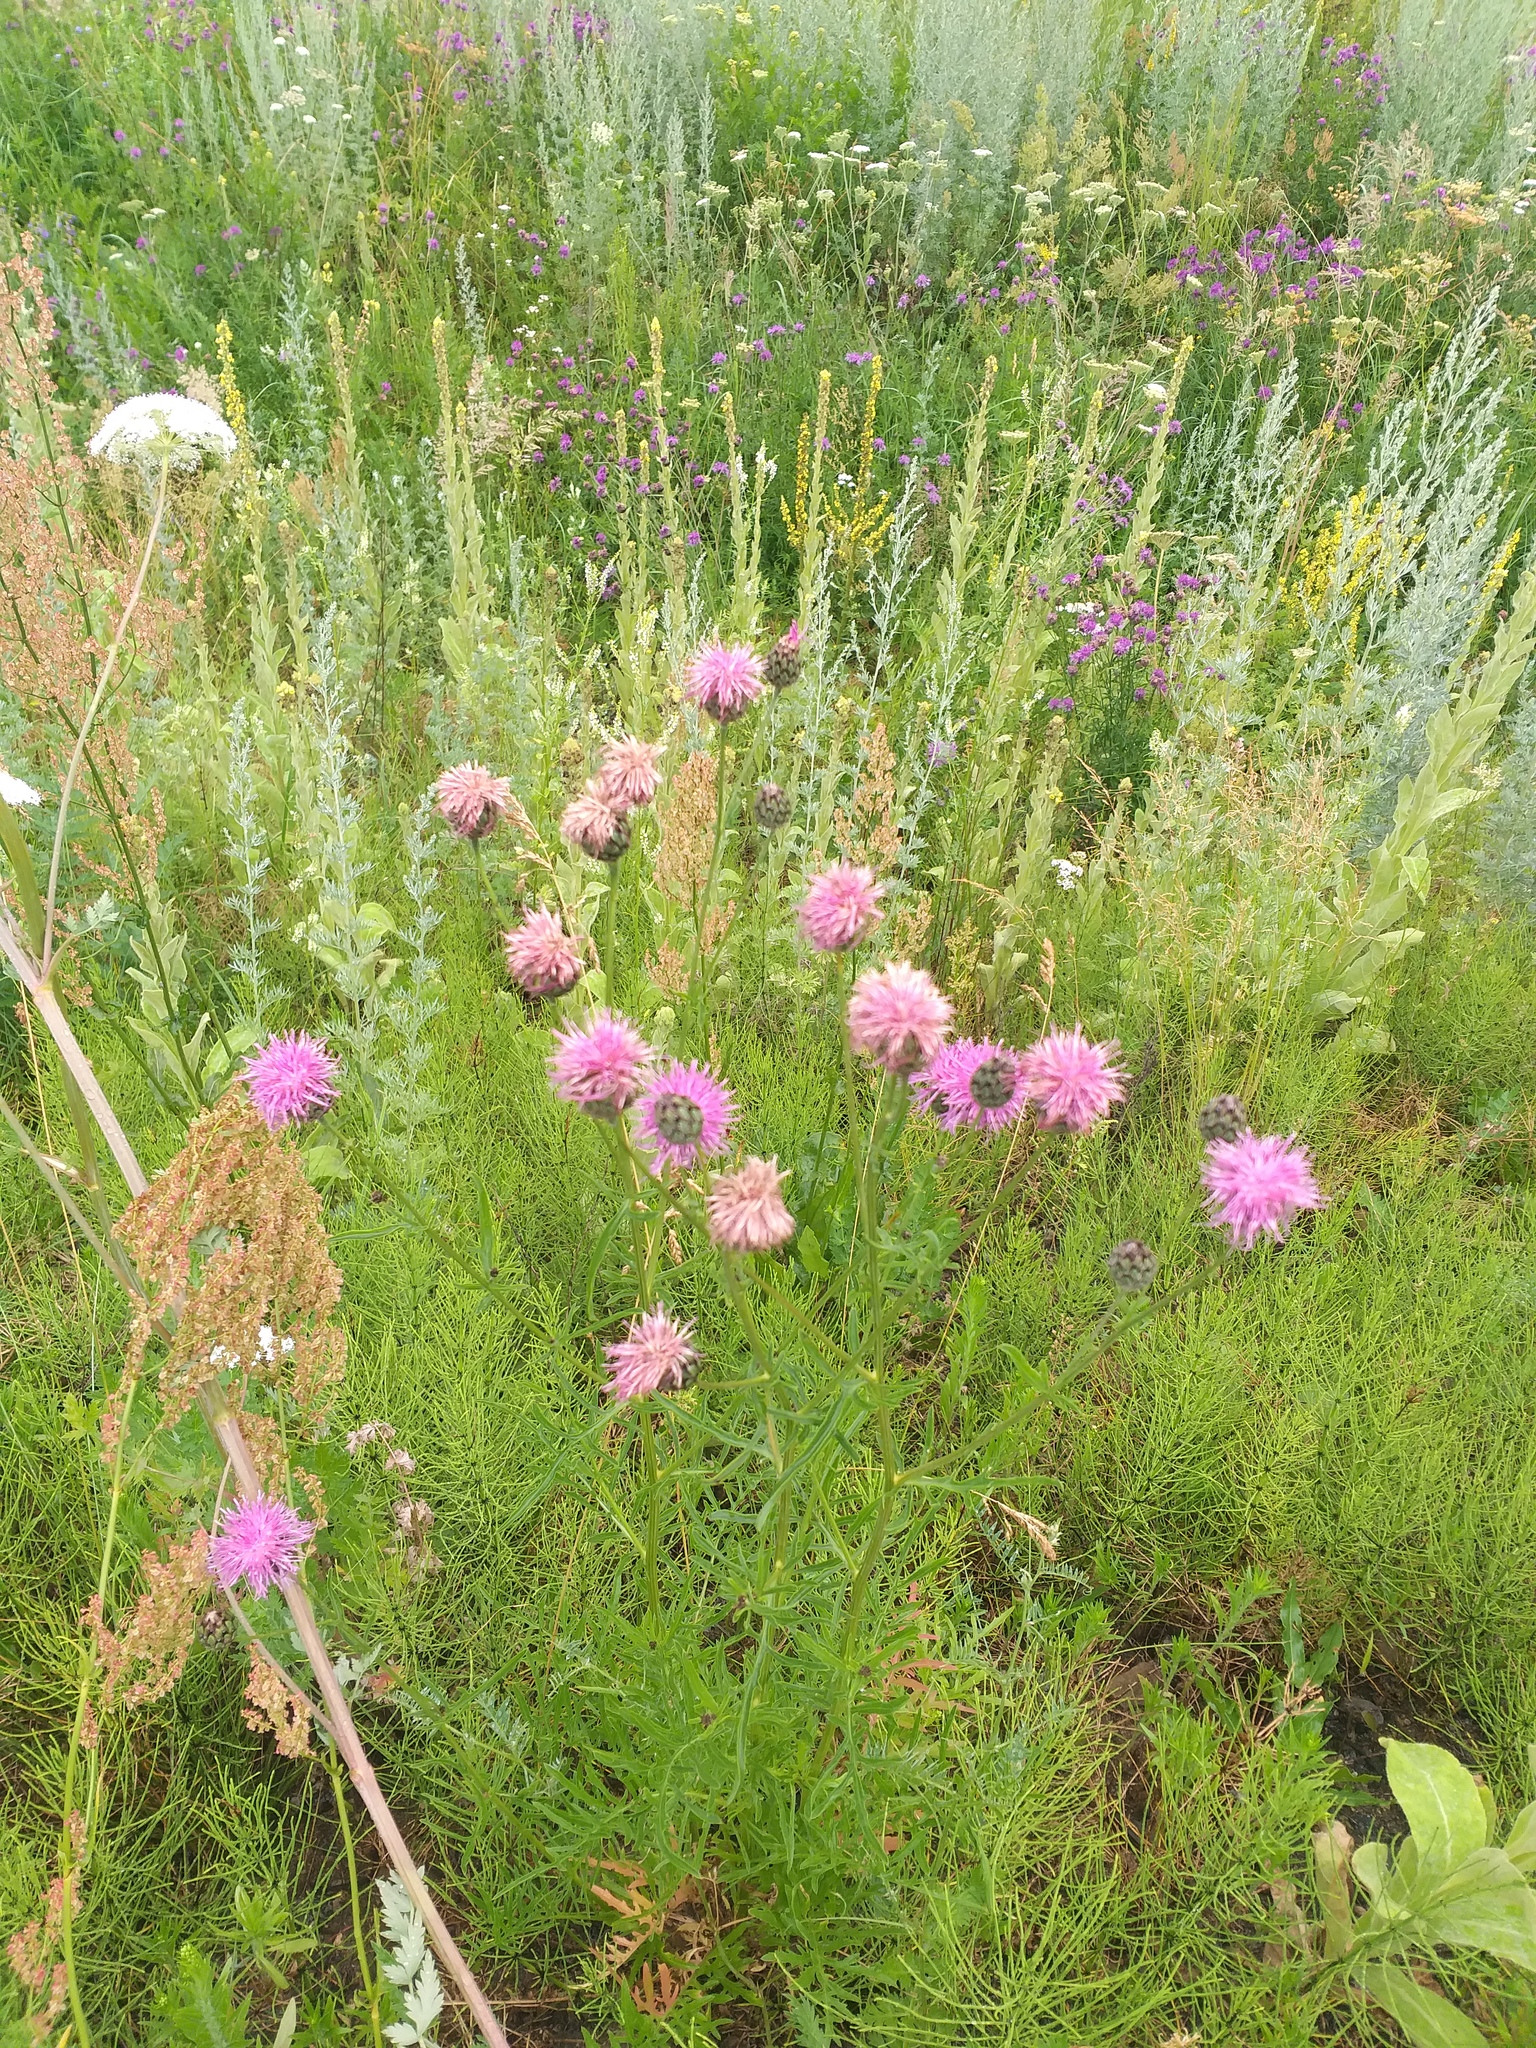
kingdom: Plantae
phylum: Tracheophyta
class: Magnoliopsida
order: Asterales
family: Asteraceae
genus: Centaurea
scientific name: Centaurea scabiosa
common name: Greater knapweed
